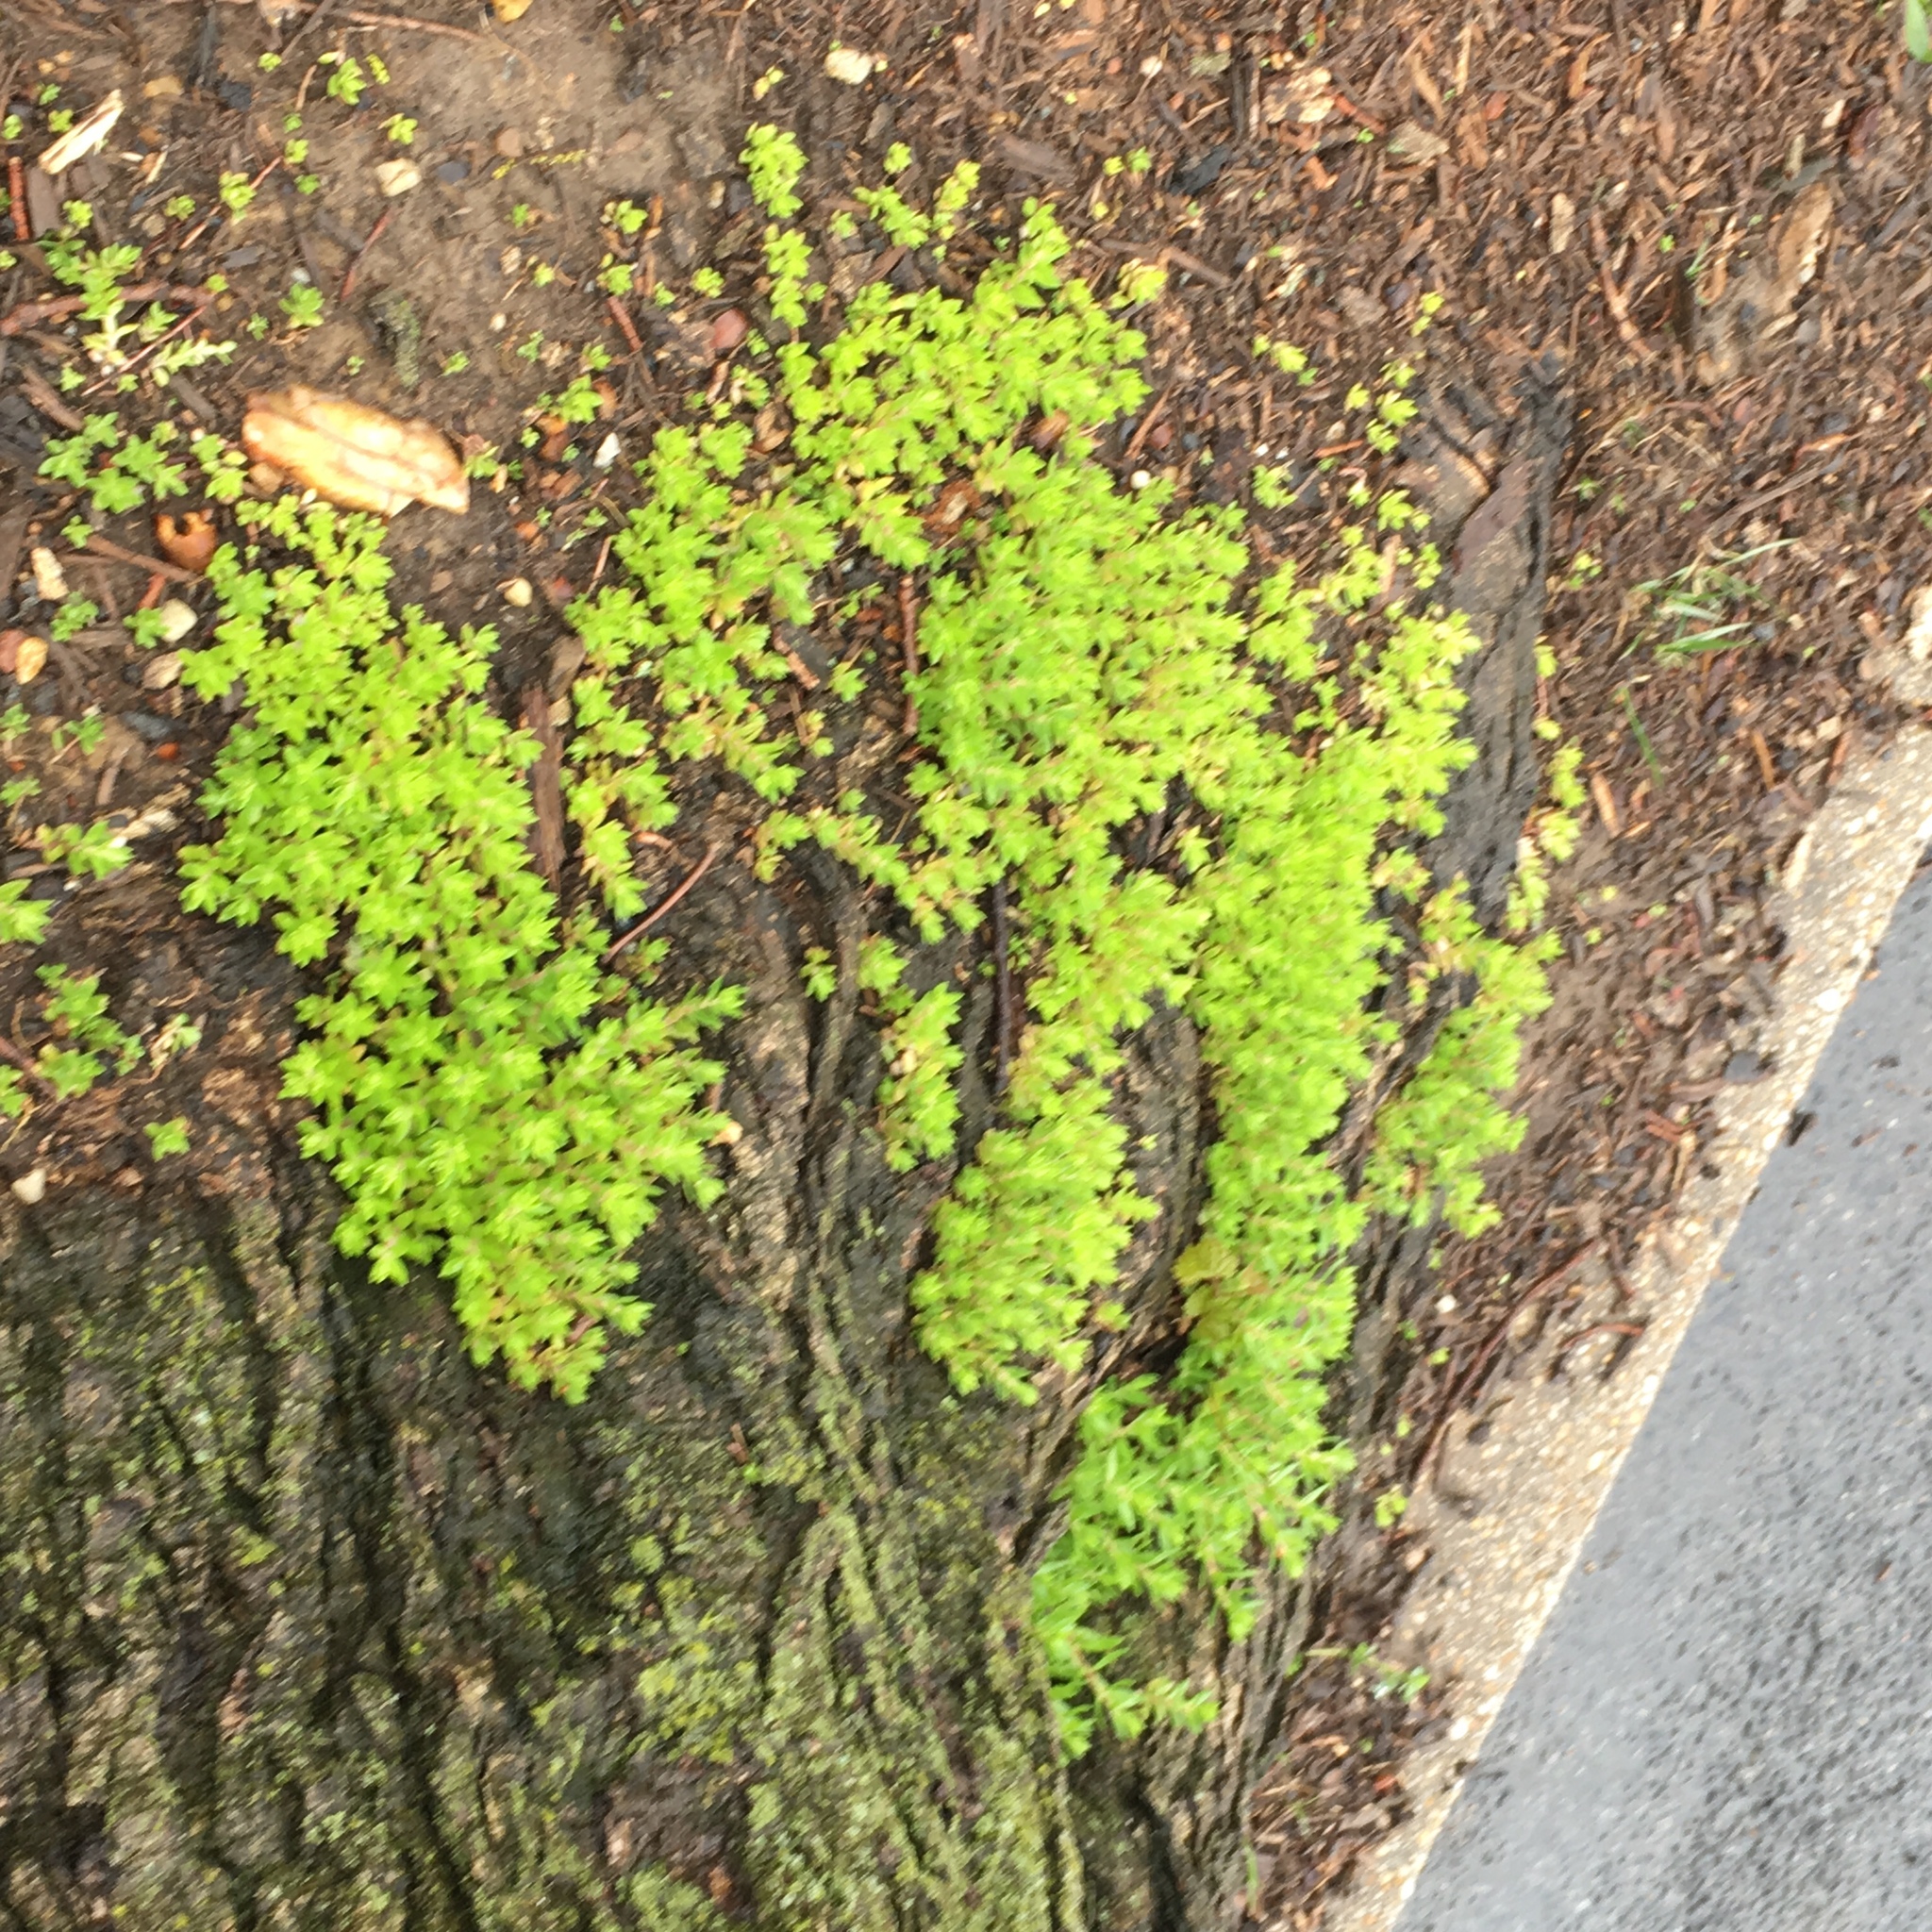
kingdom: Plantae
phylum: Tracheophyta
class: Magnoliopsida
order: Saxifragales
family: Crassulaceae
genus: Sedum
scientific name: Sedum sarmentosum
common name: Stringy stonecrop
